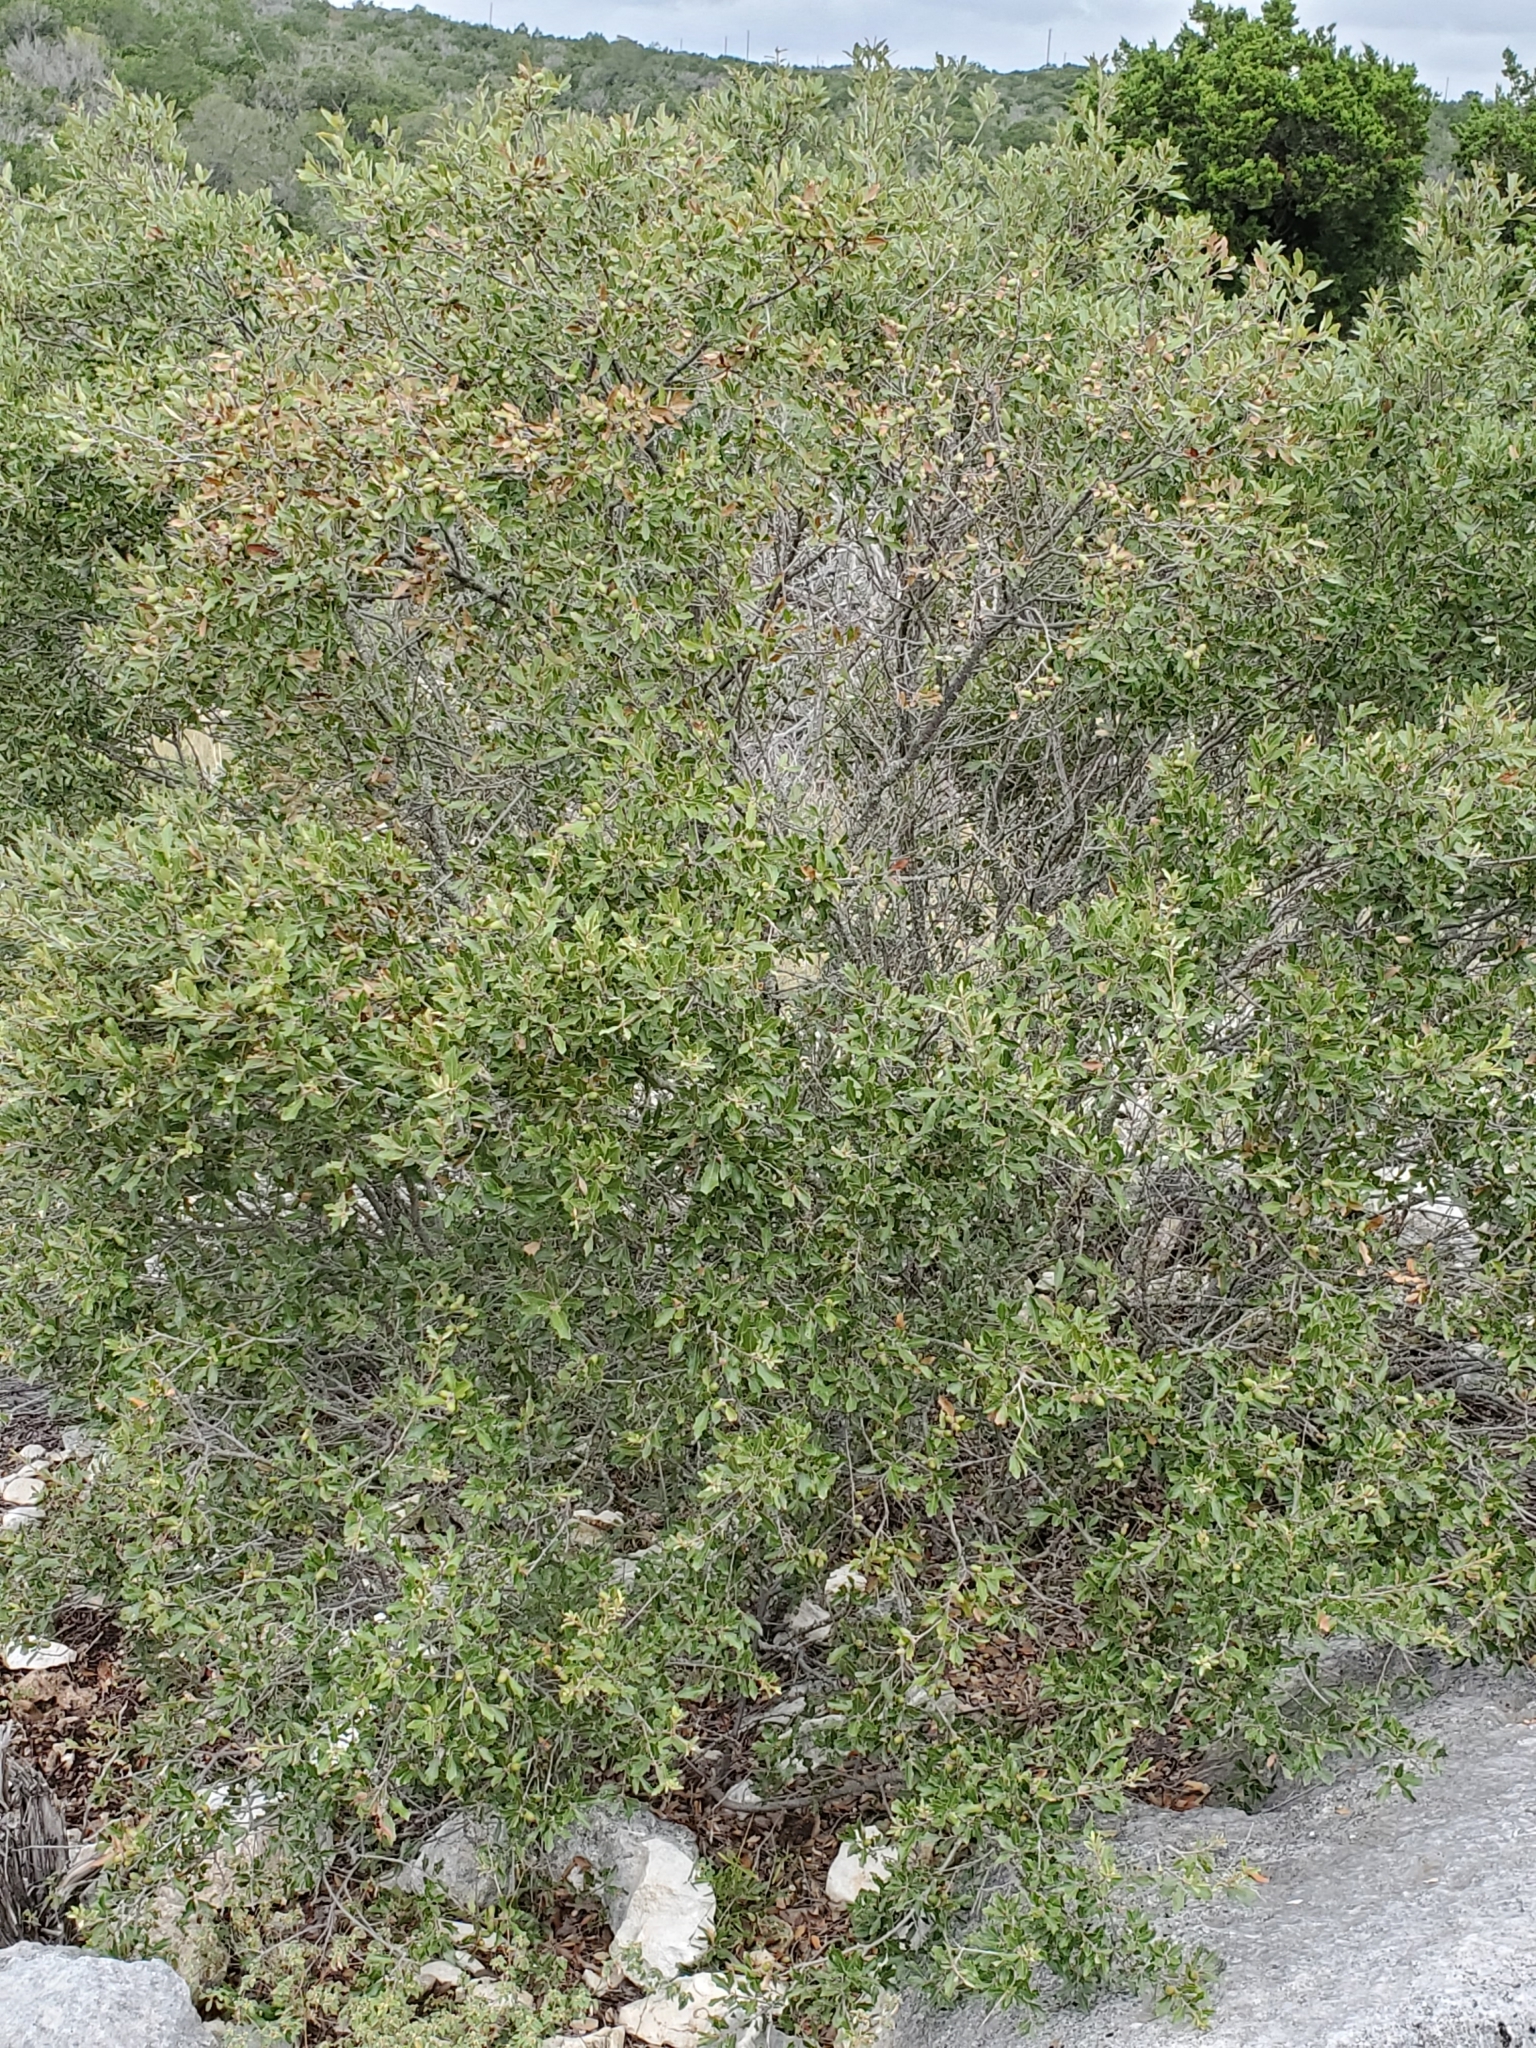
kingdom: Plantae
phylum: Tracheophyta
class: Magnoliopsida
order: Fagales
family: Fagaceae
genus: Quercus
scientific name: Quercus vaseyana
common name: Sandpaper oak
